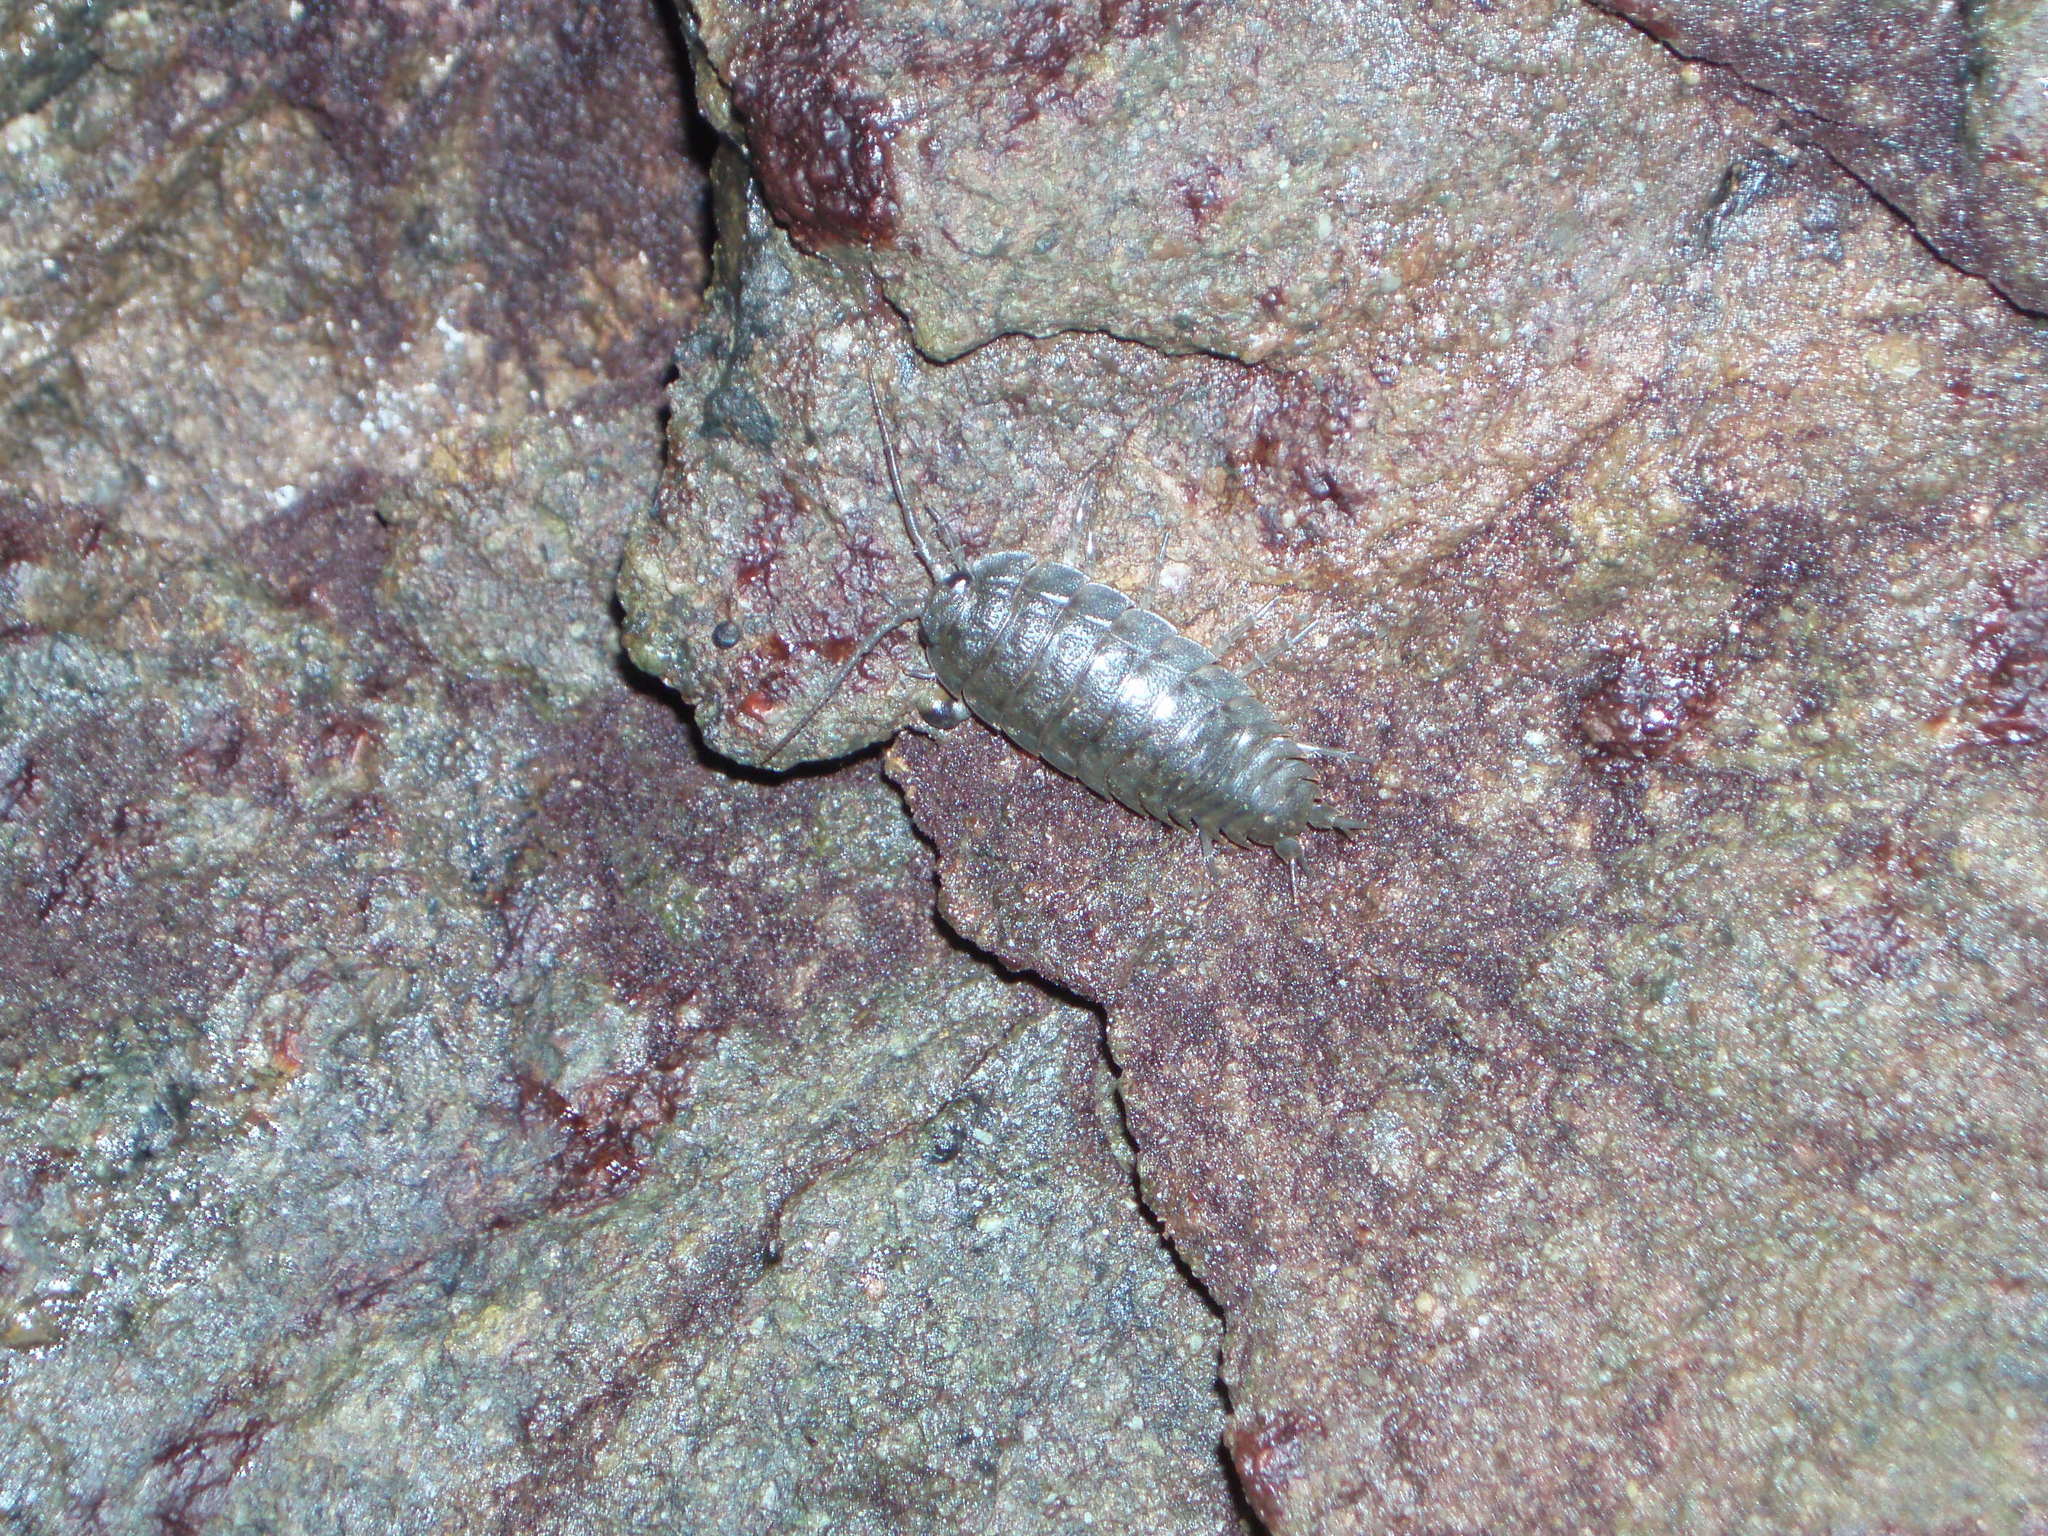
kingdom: Animalia
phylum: Arthropoda
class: Malacostraca
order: Isopoda
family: Ligiidae
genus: Ligia
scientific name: Ligia pallasii
